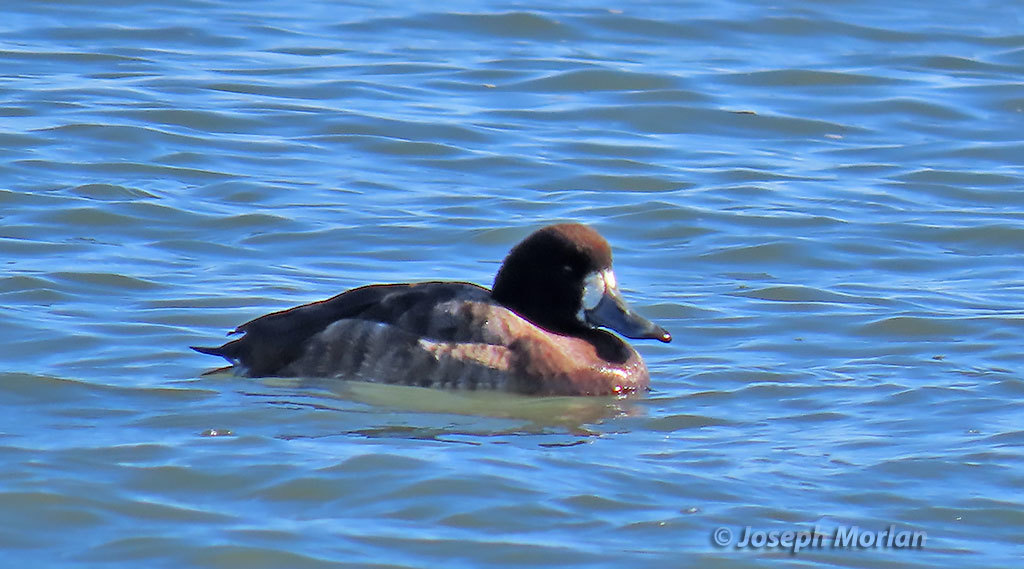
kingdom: Animalia
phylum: Chordata
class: Aves
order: Anseriformes
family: Anatidae
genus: Aythya
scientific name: Aythya marila
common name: Greater scaup
